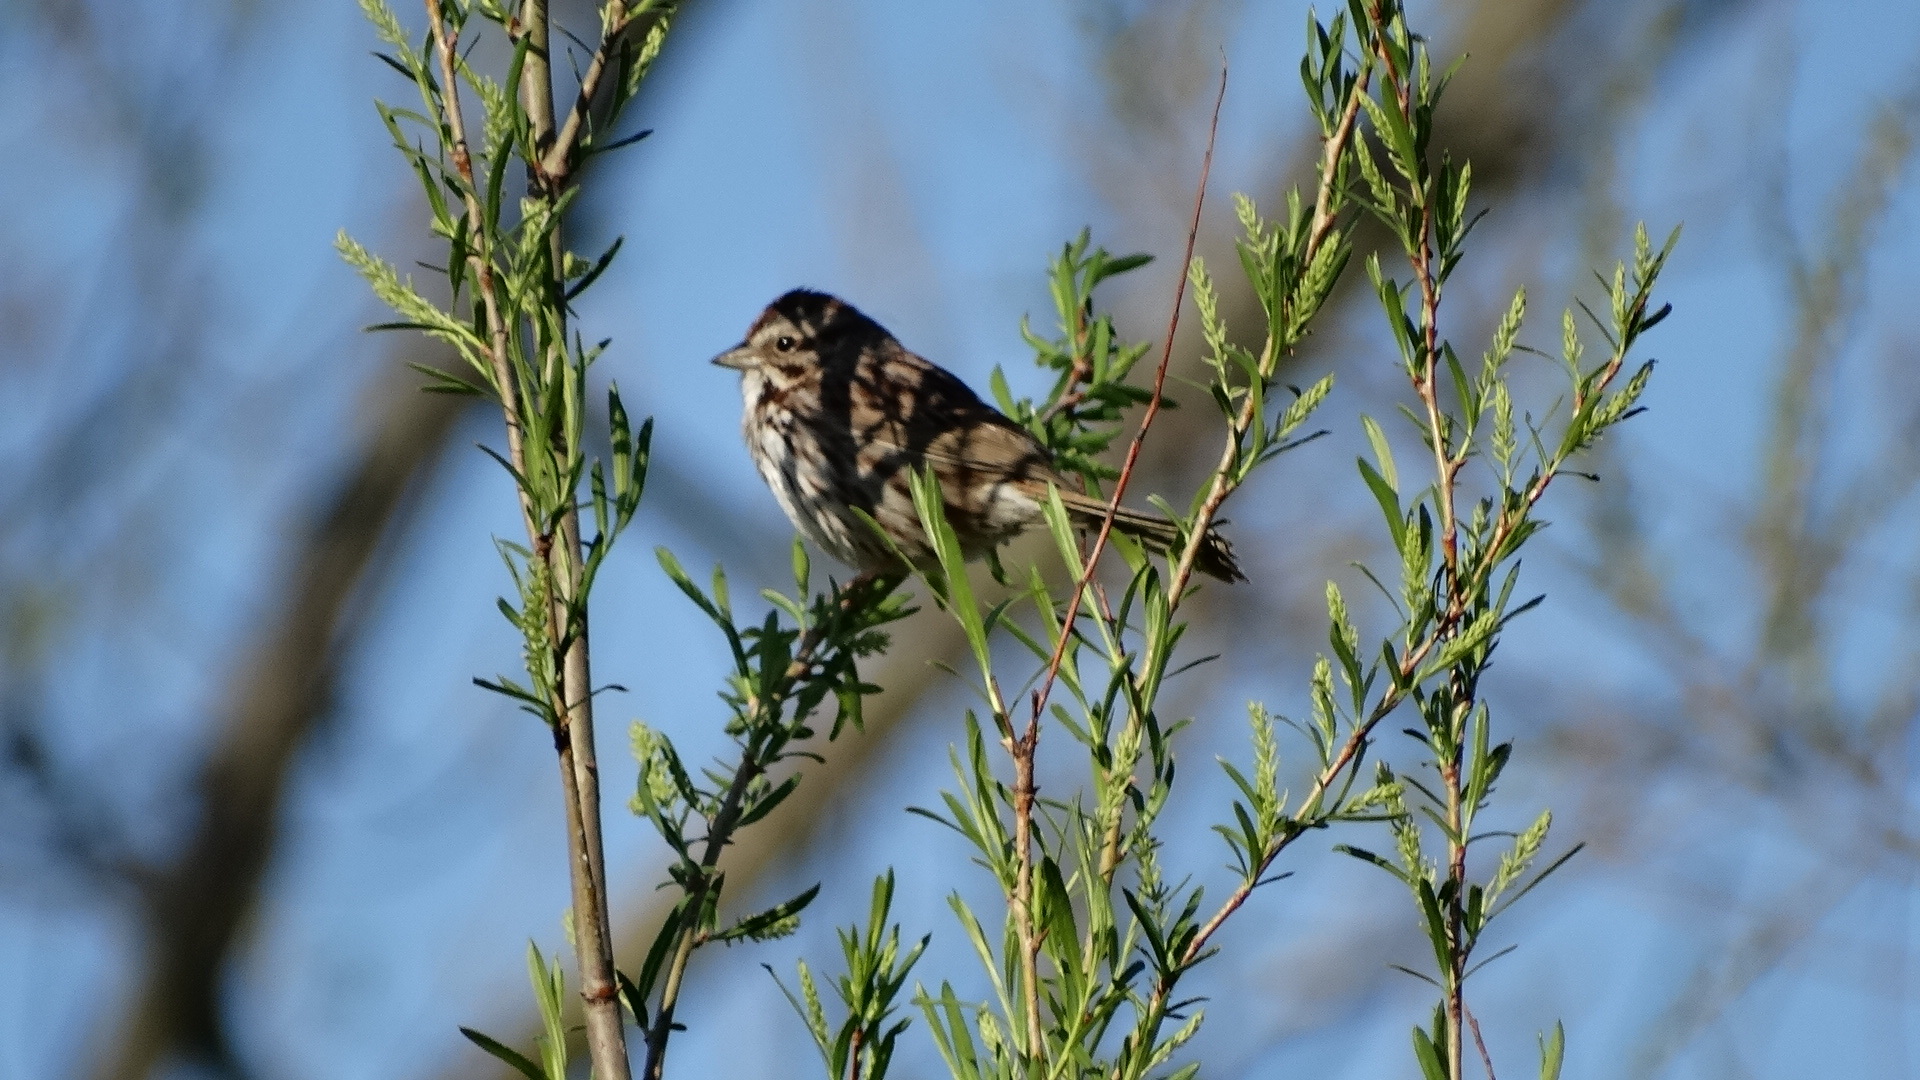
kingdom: Animalia
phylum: Chordata
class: Aves
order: Passeriformes
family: Passerellidae
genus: Melospiza
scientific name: Melospiza melodia
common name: Song sparrow
